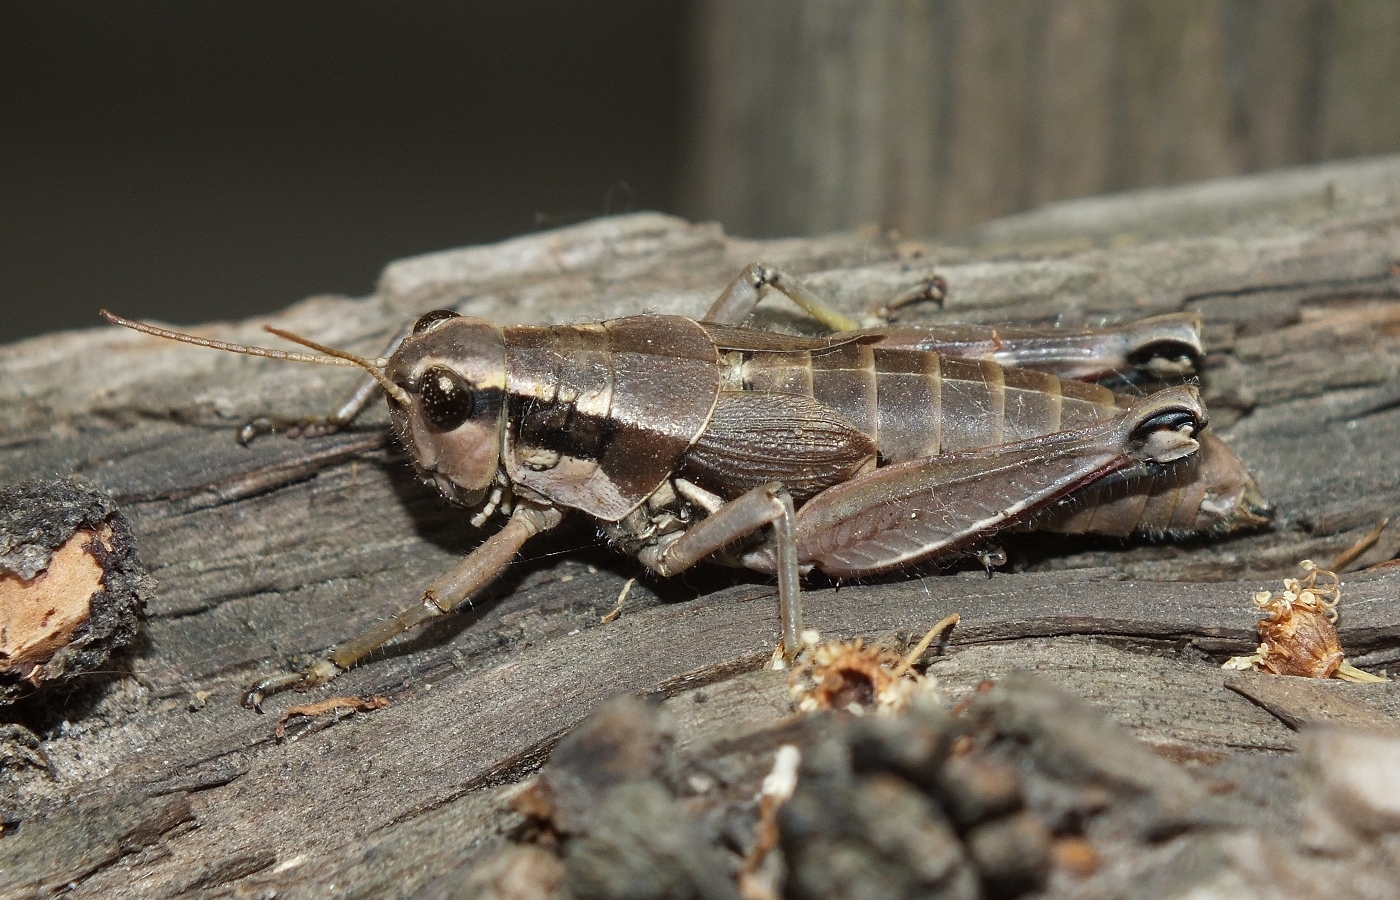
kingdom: Animalia
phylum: Arthropoda
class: Insecta
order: Orthoptera
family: Acrididae
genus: Podisma
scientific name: Podisma pedestris
